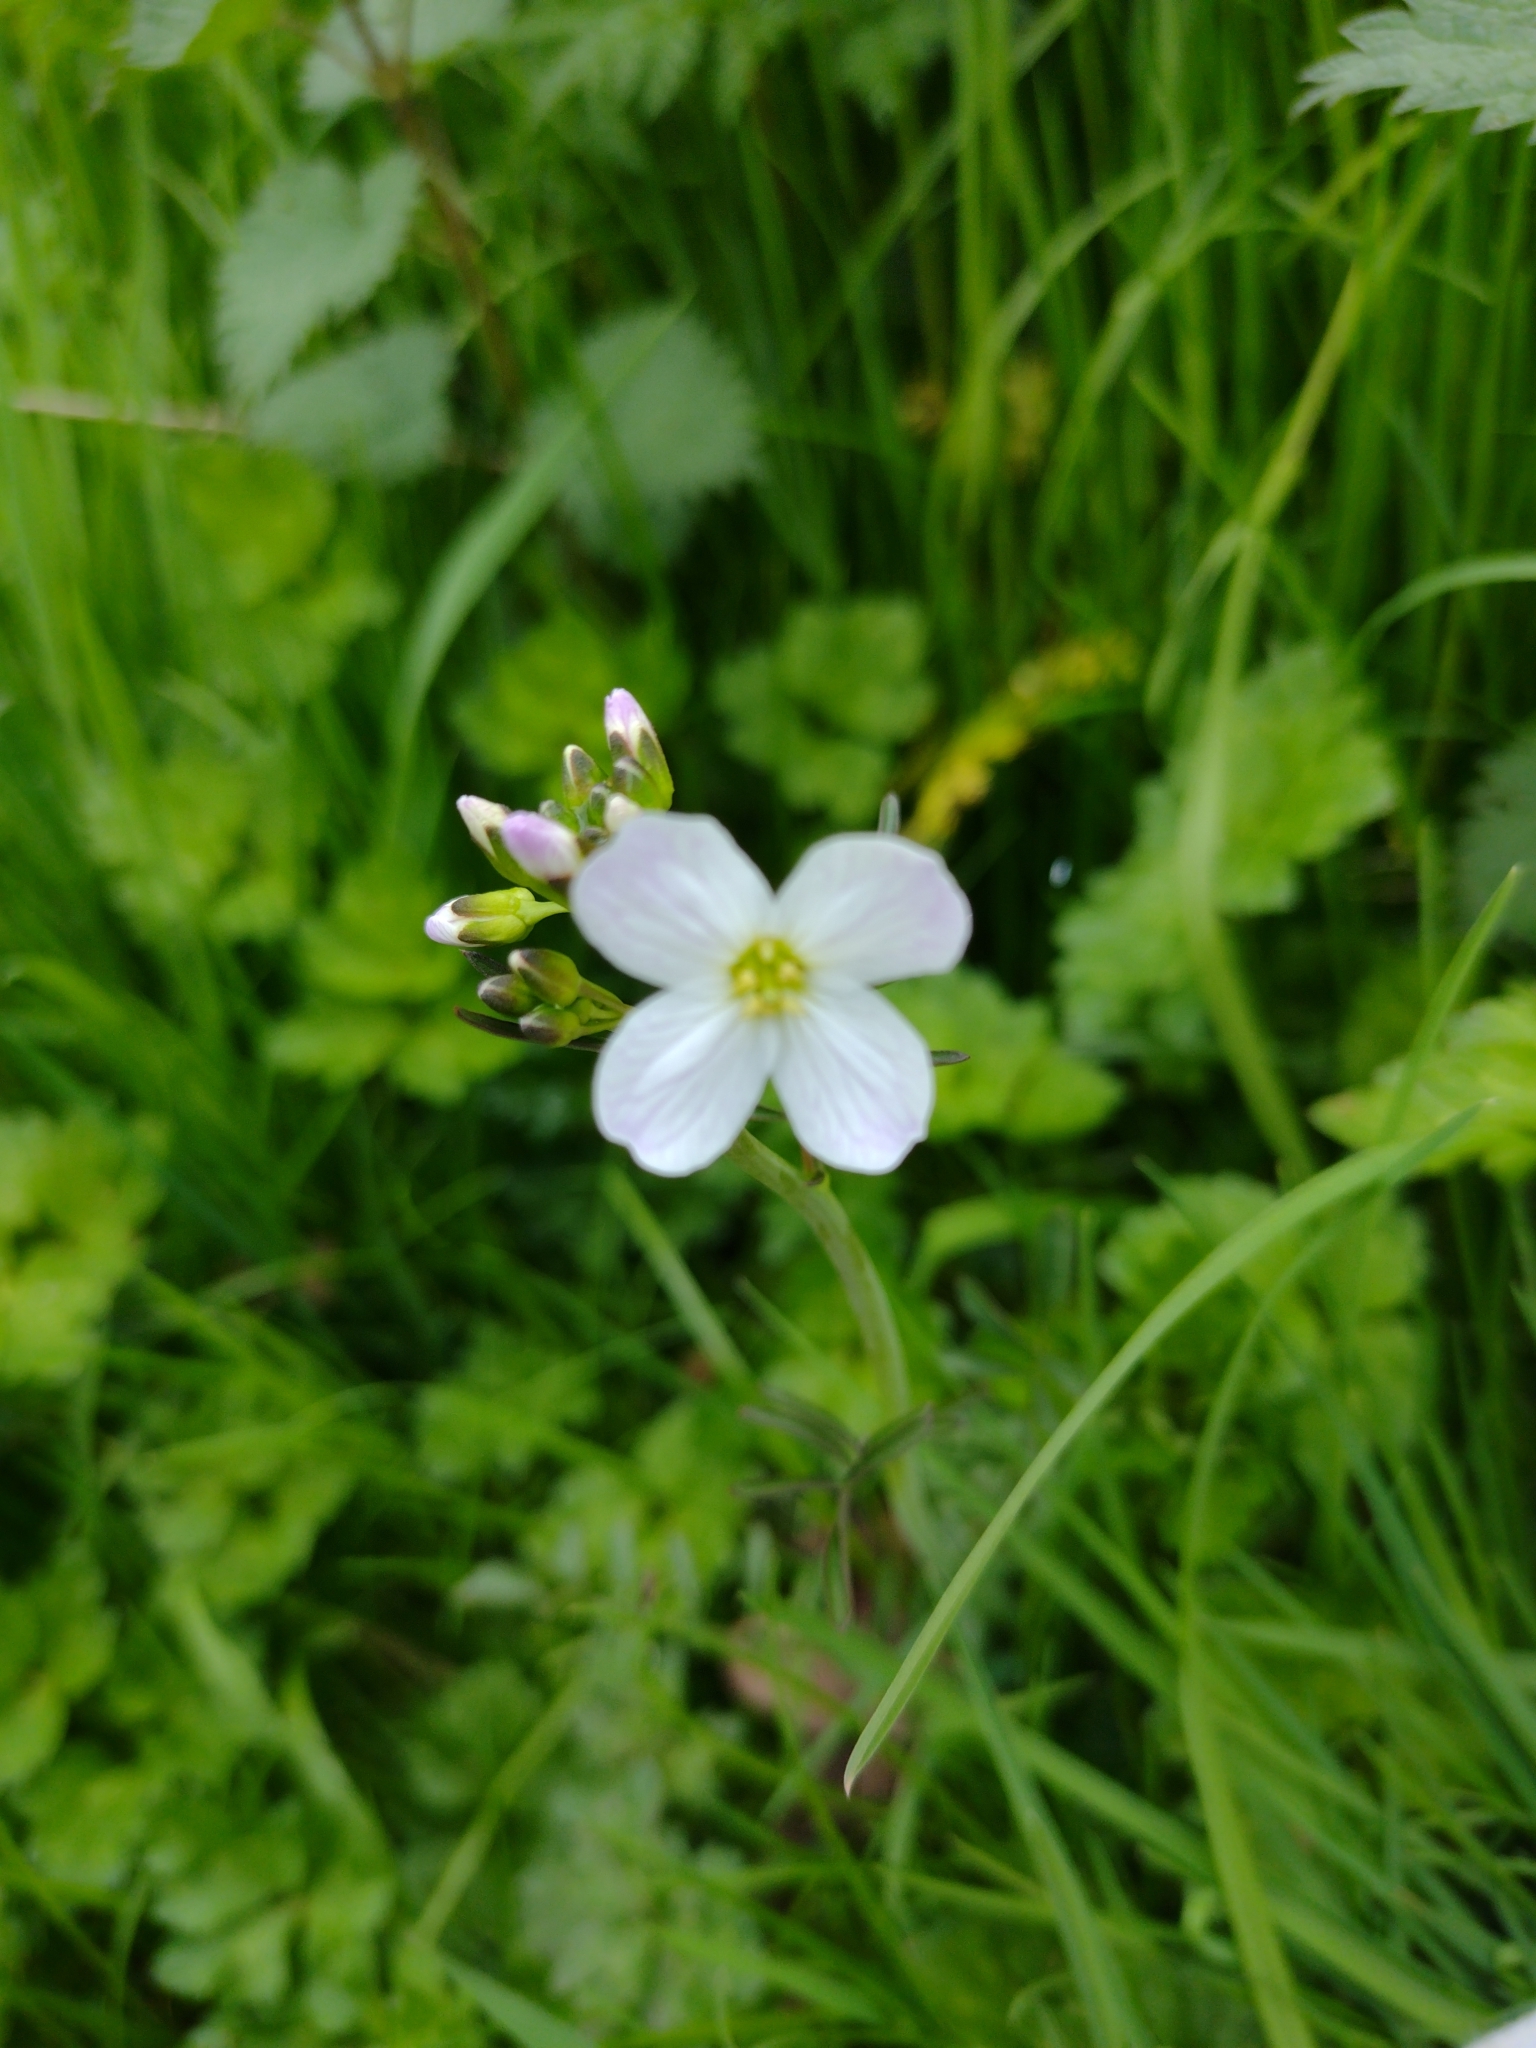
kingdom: Plantae
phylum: Tracheophyta
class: Magnoliopsida
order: Brassicales
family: Brassicaceae
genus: Cardamine
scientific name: Cardamine pratensis
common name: Cuckoo flower
